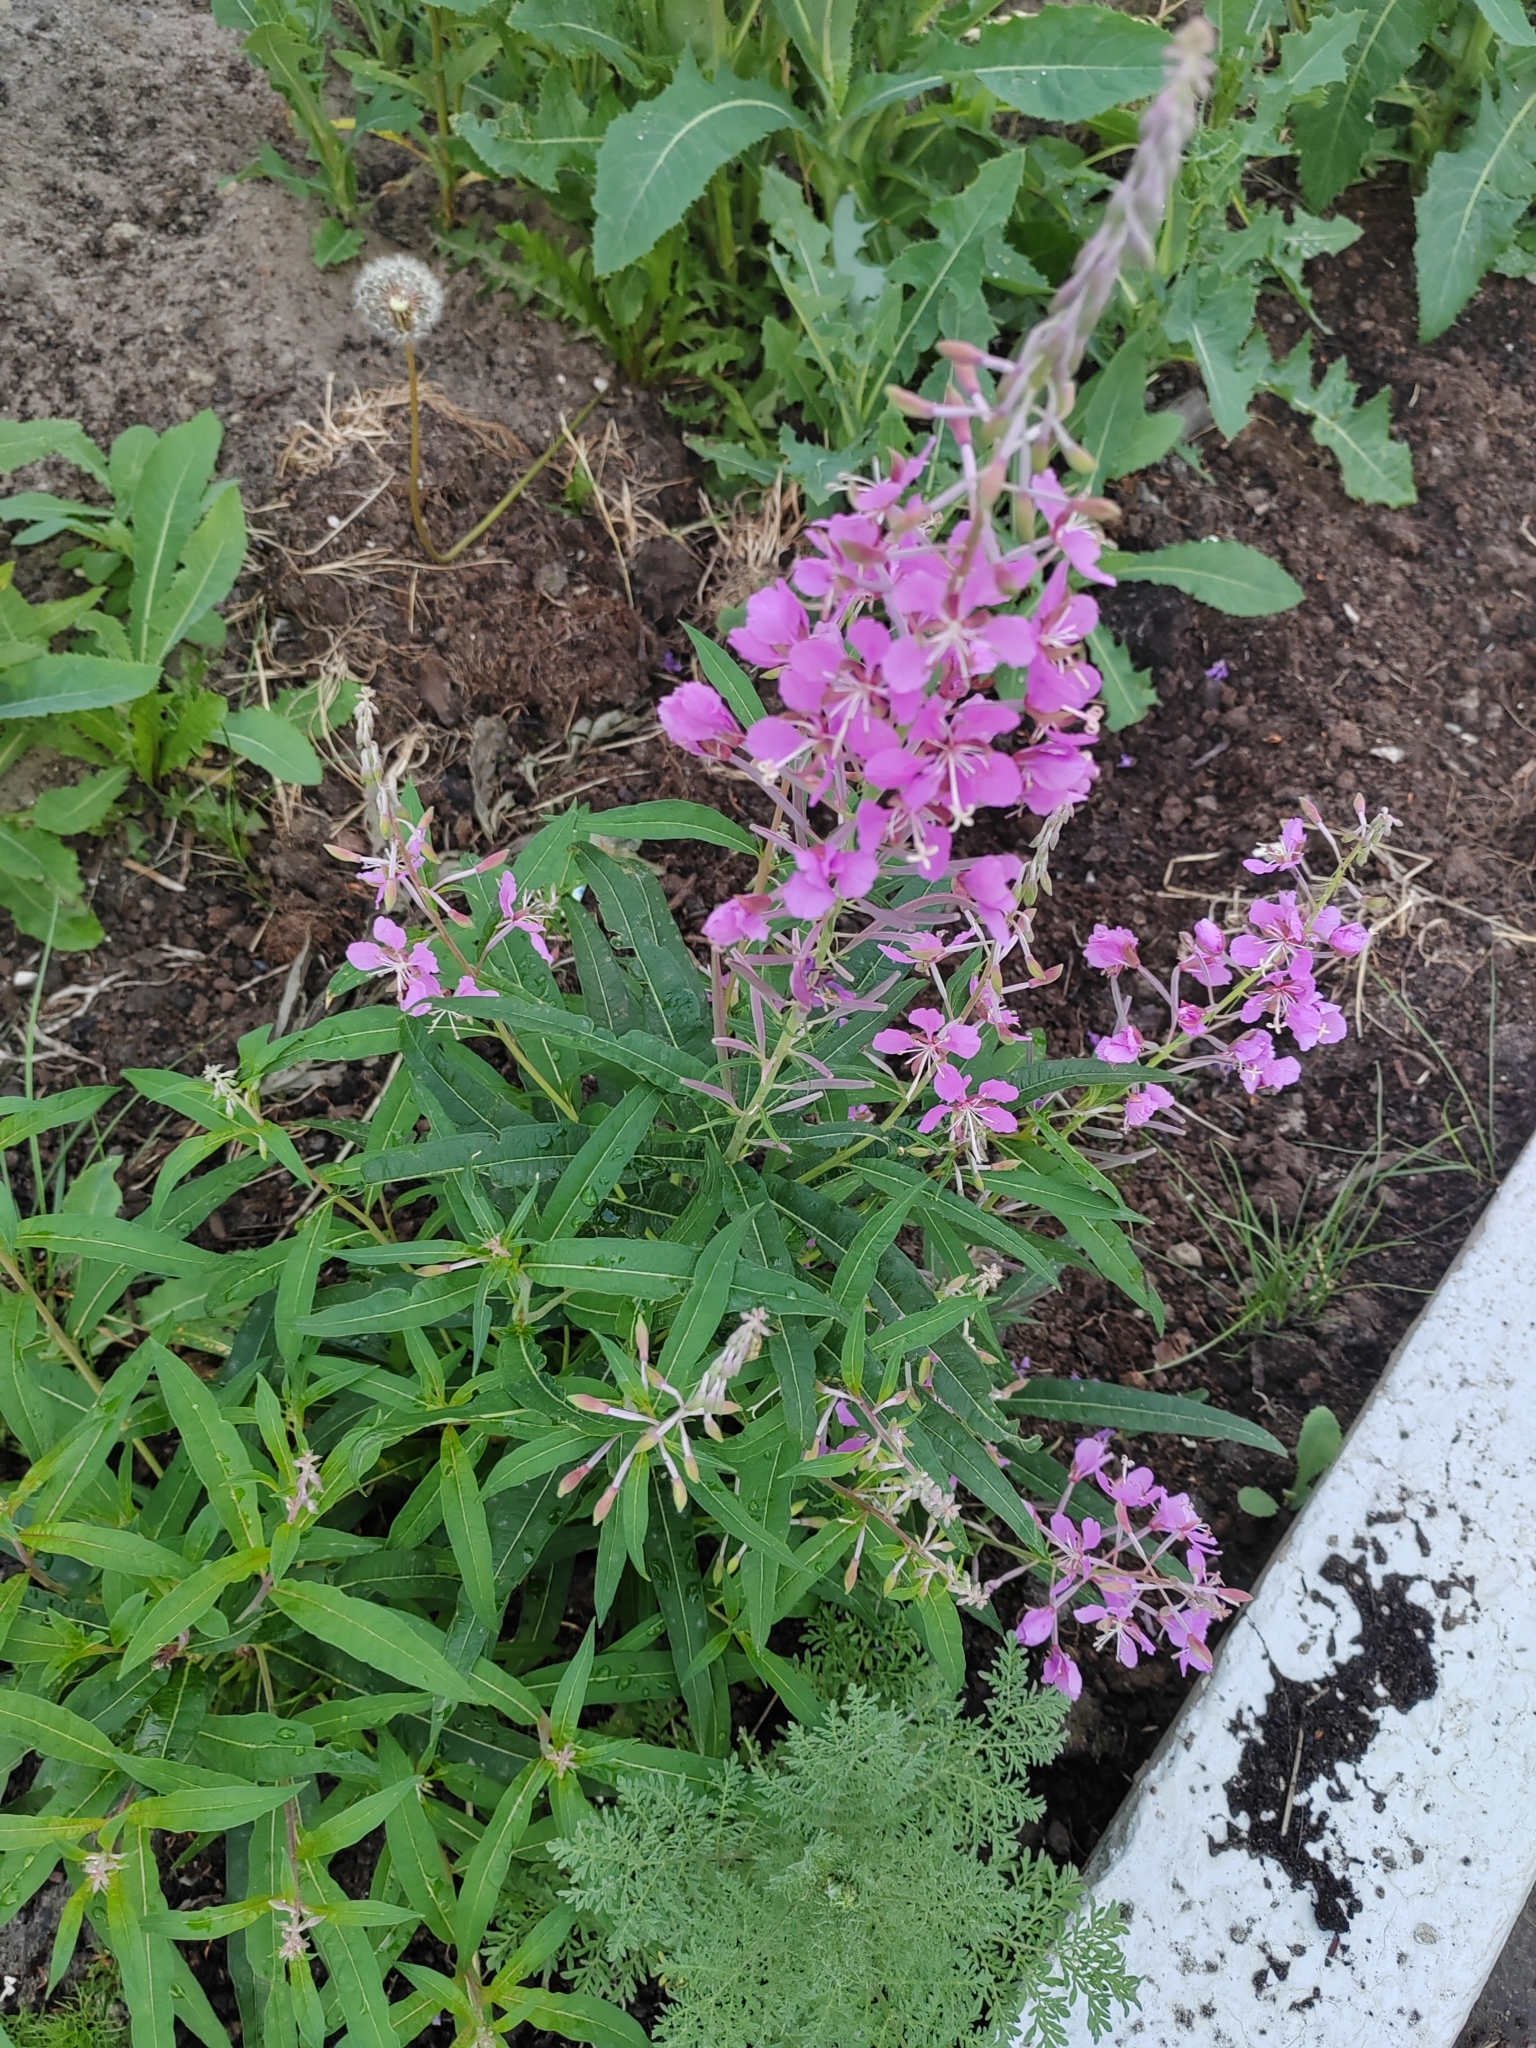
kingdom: Plantae
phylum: Tracheophyta
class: Magnoliopsida
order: Myrtales
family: Onagraceae
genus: Chamaenerion
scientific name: Chamaenerion angustifolium
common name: Fireweed
